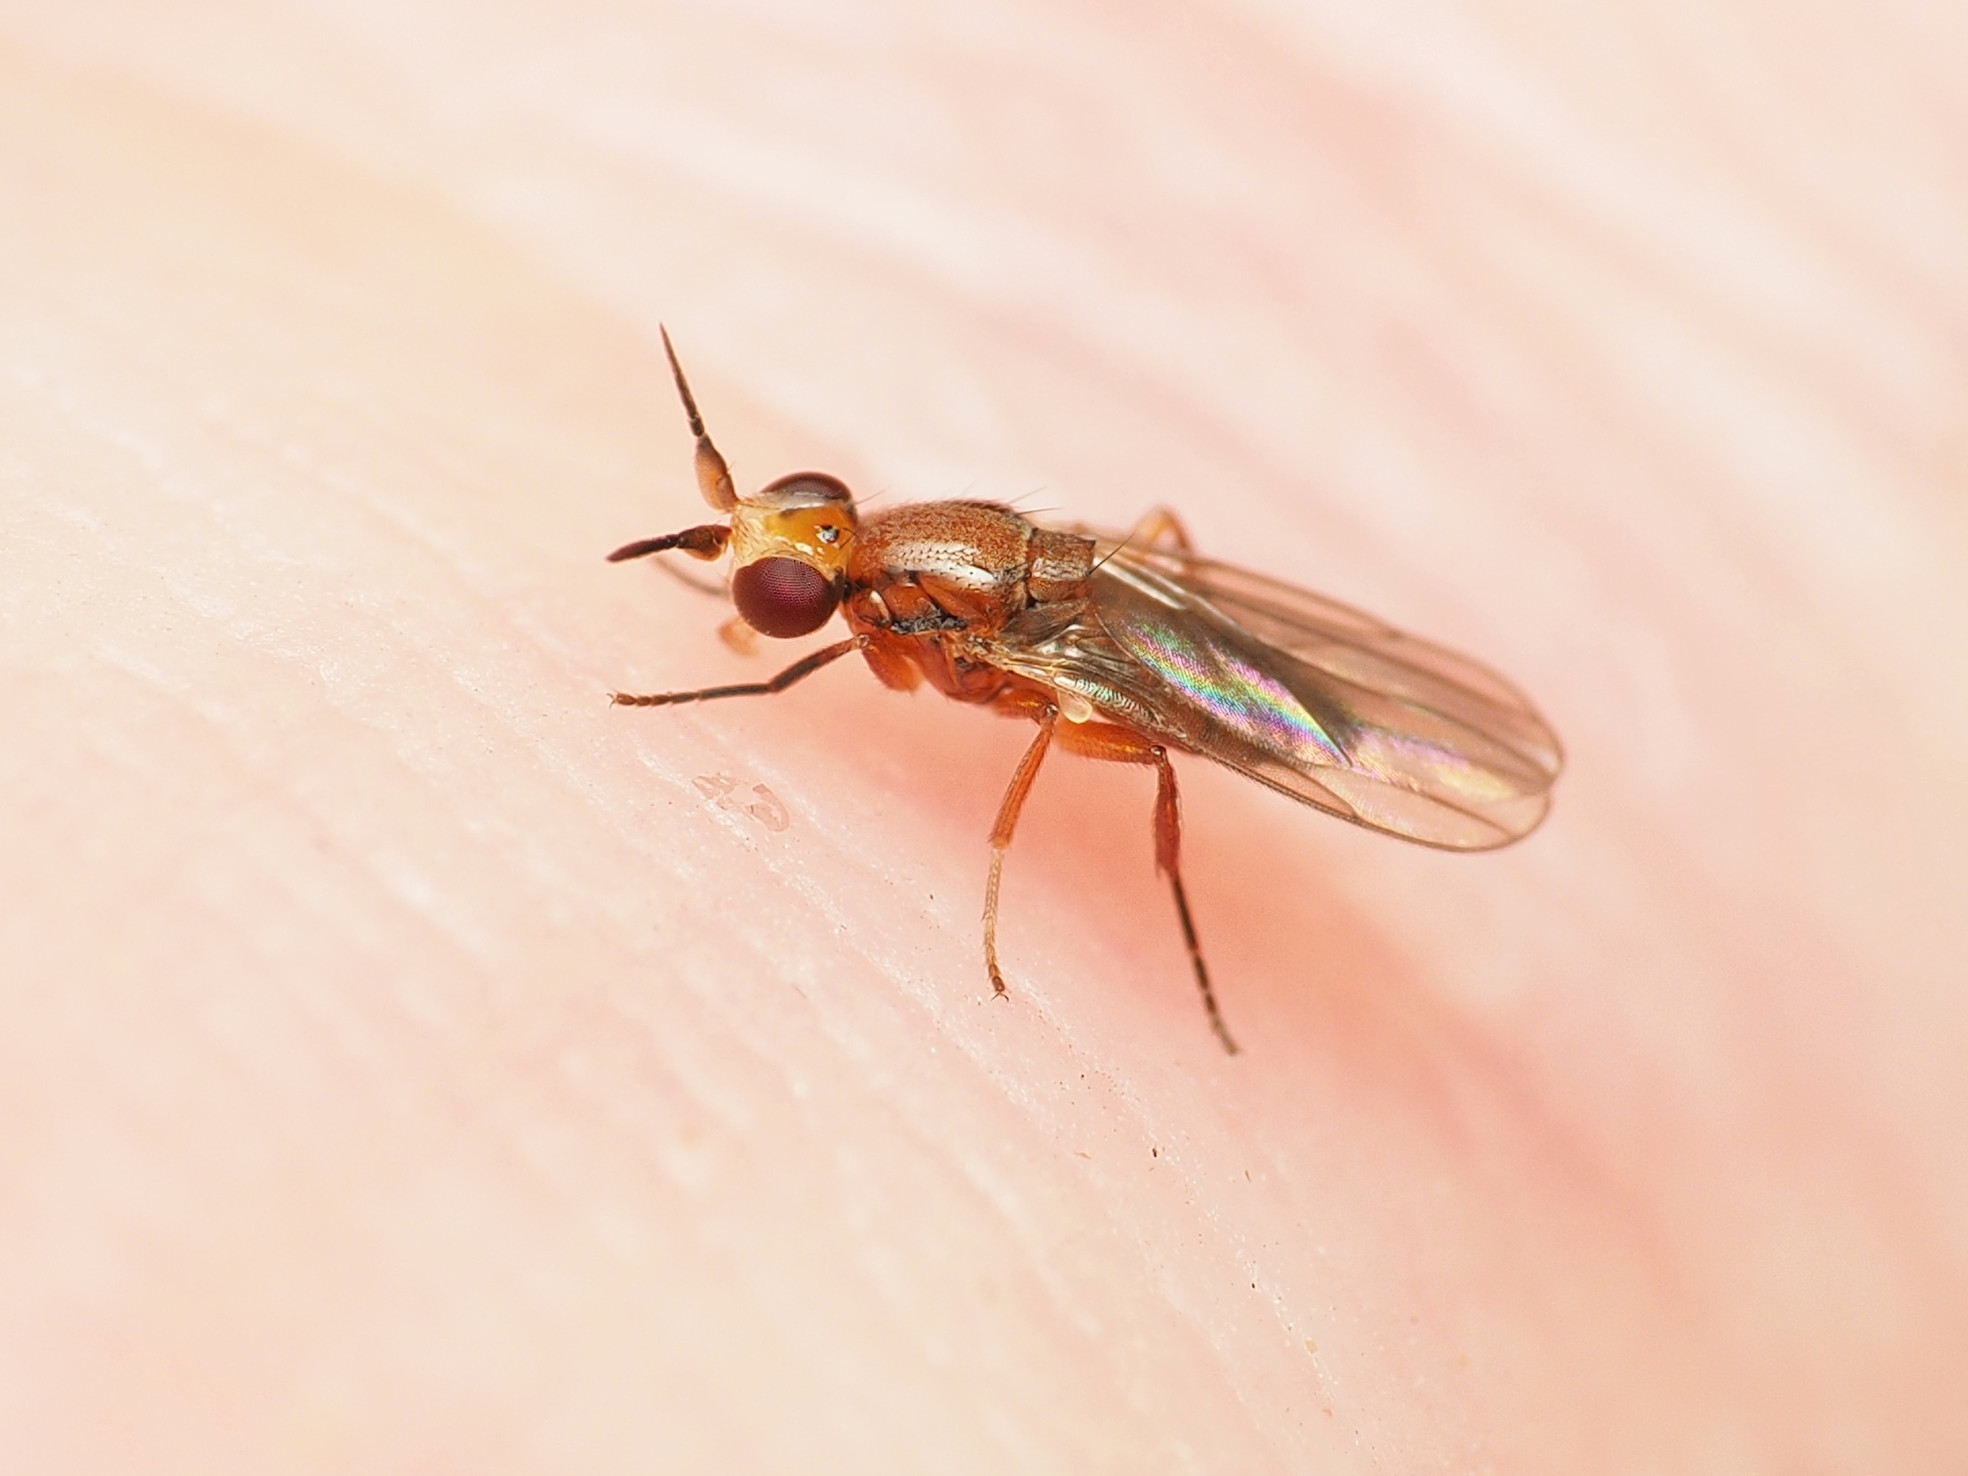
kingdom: Animalia
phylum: Arthropoda
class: Insecta
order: Diptera
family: Chloropidae
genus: Ceratobarys
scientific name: Ceratobarys eulophus
